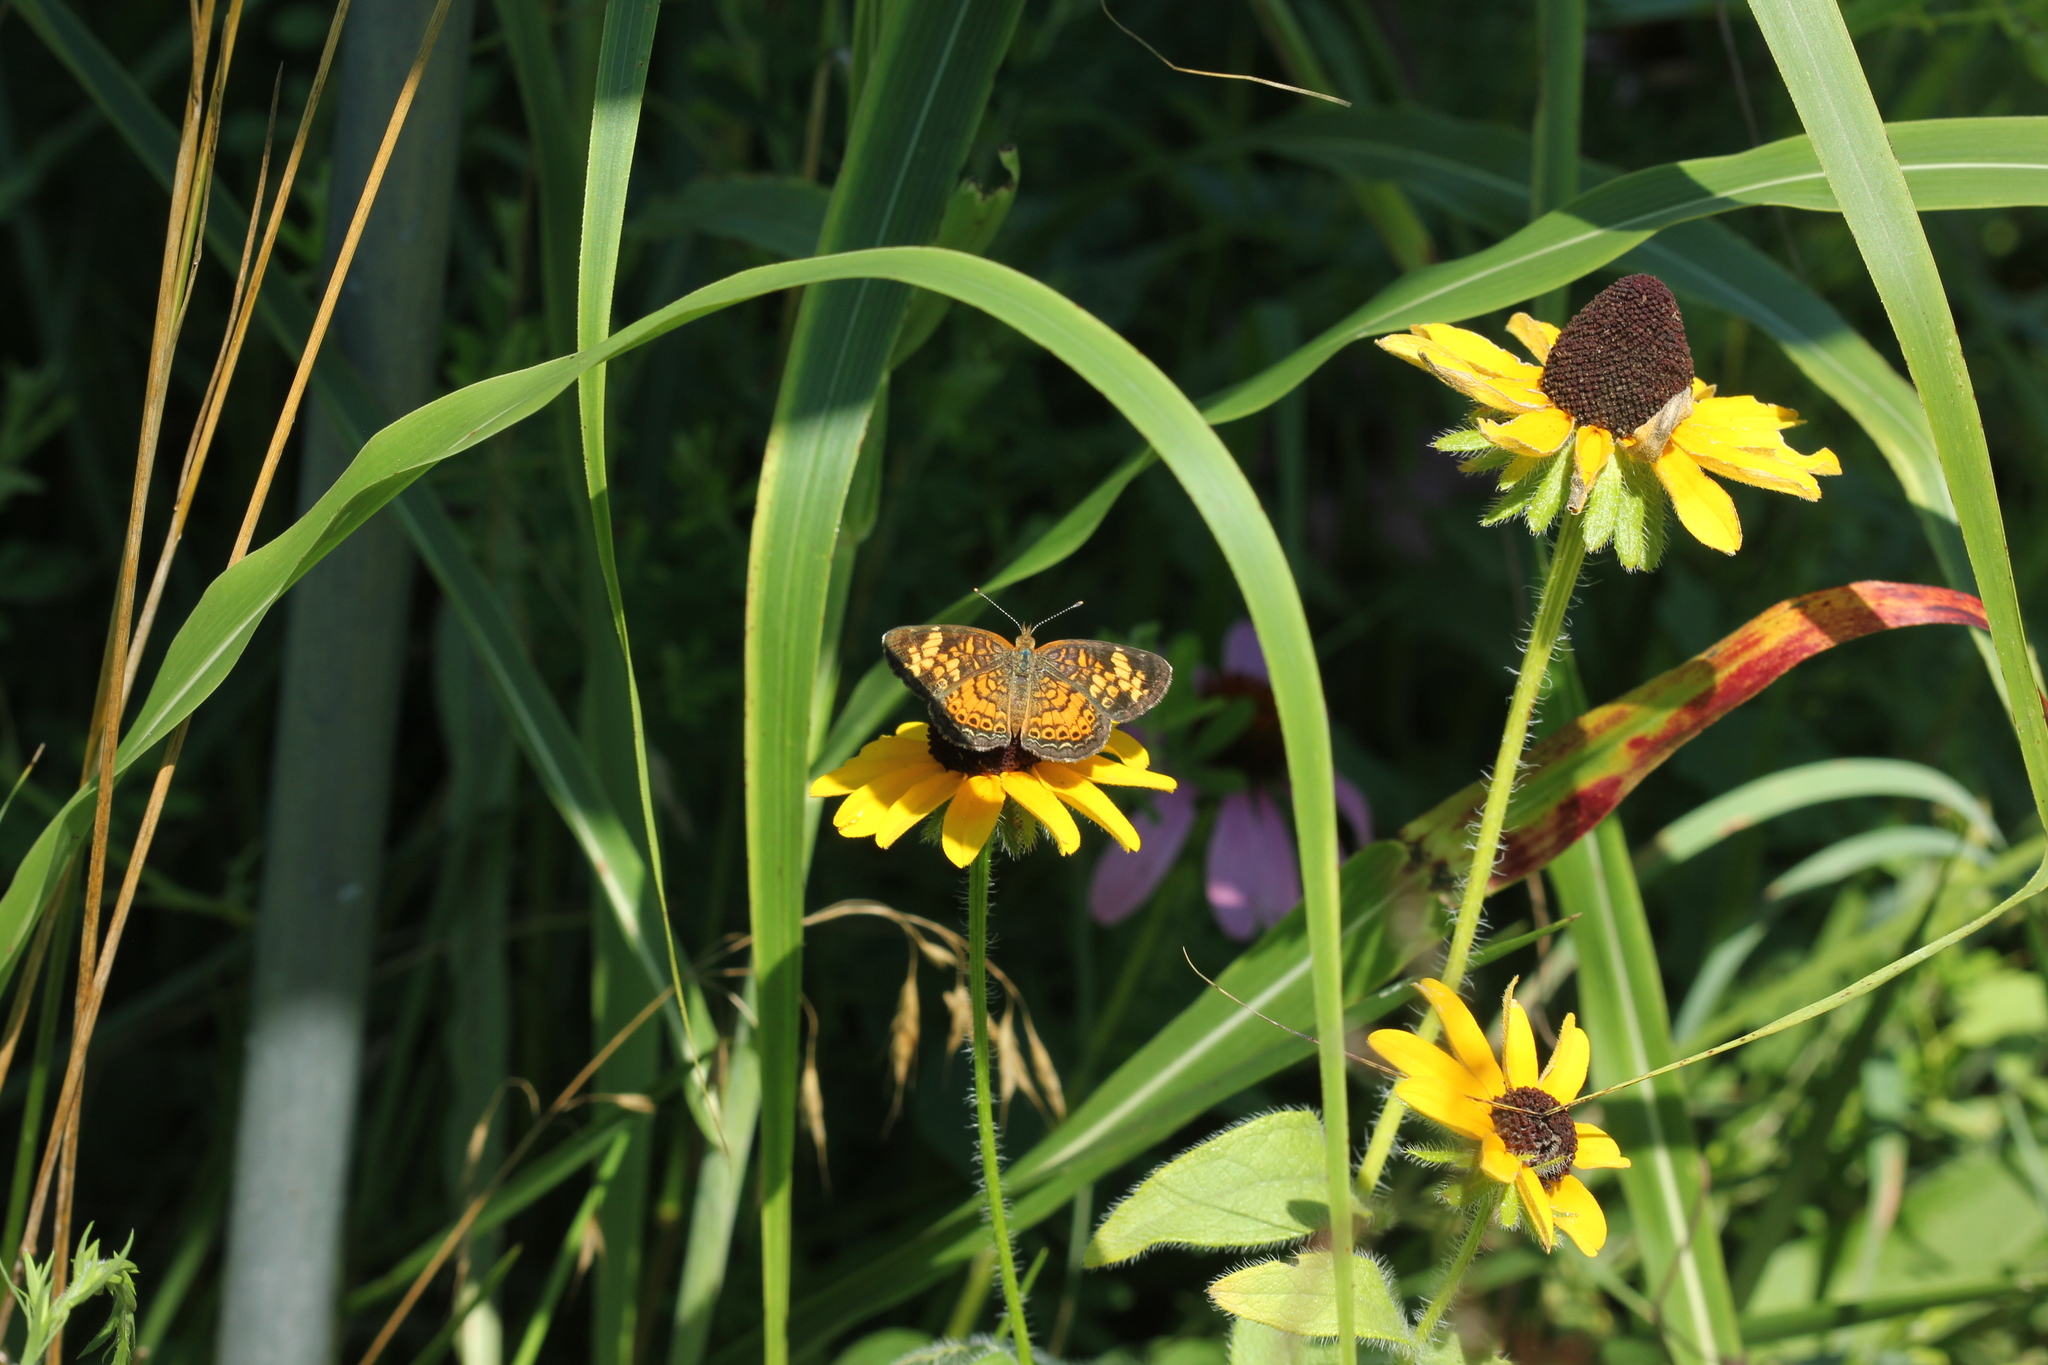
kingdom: Animalia
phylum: Arthropoda
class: Insecta
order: Lepidoptera
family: Nymphalidae
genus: Phyciodes
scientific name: Phyciodes tharos
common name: Pearl crescent
